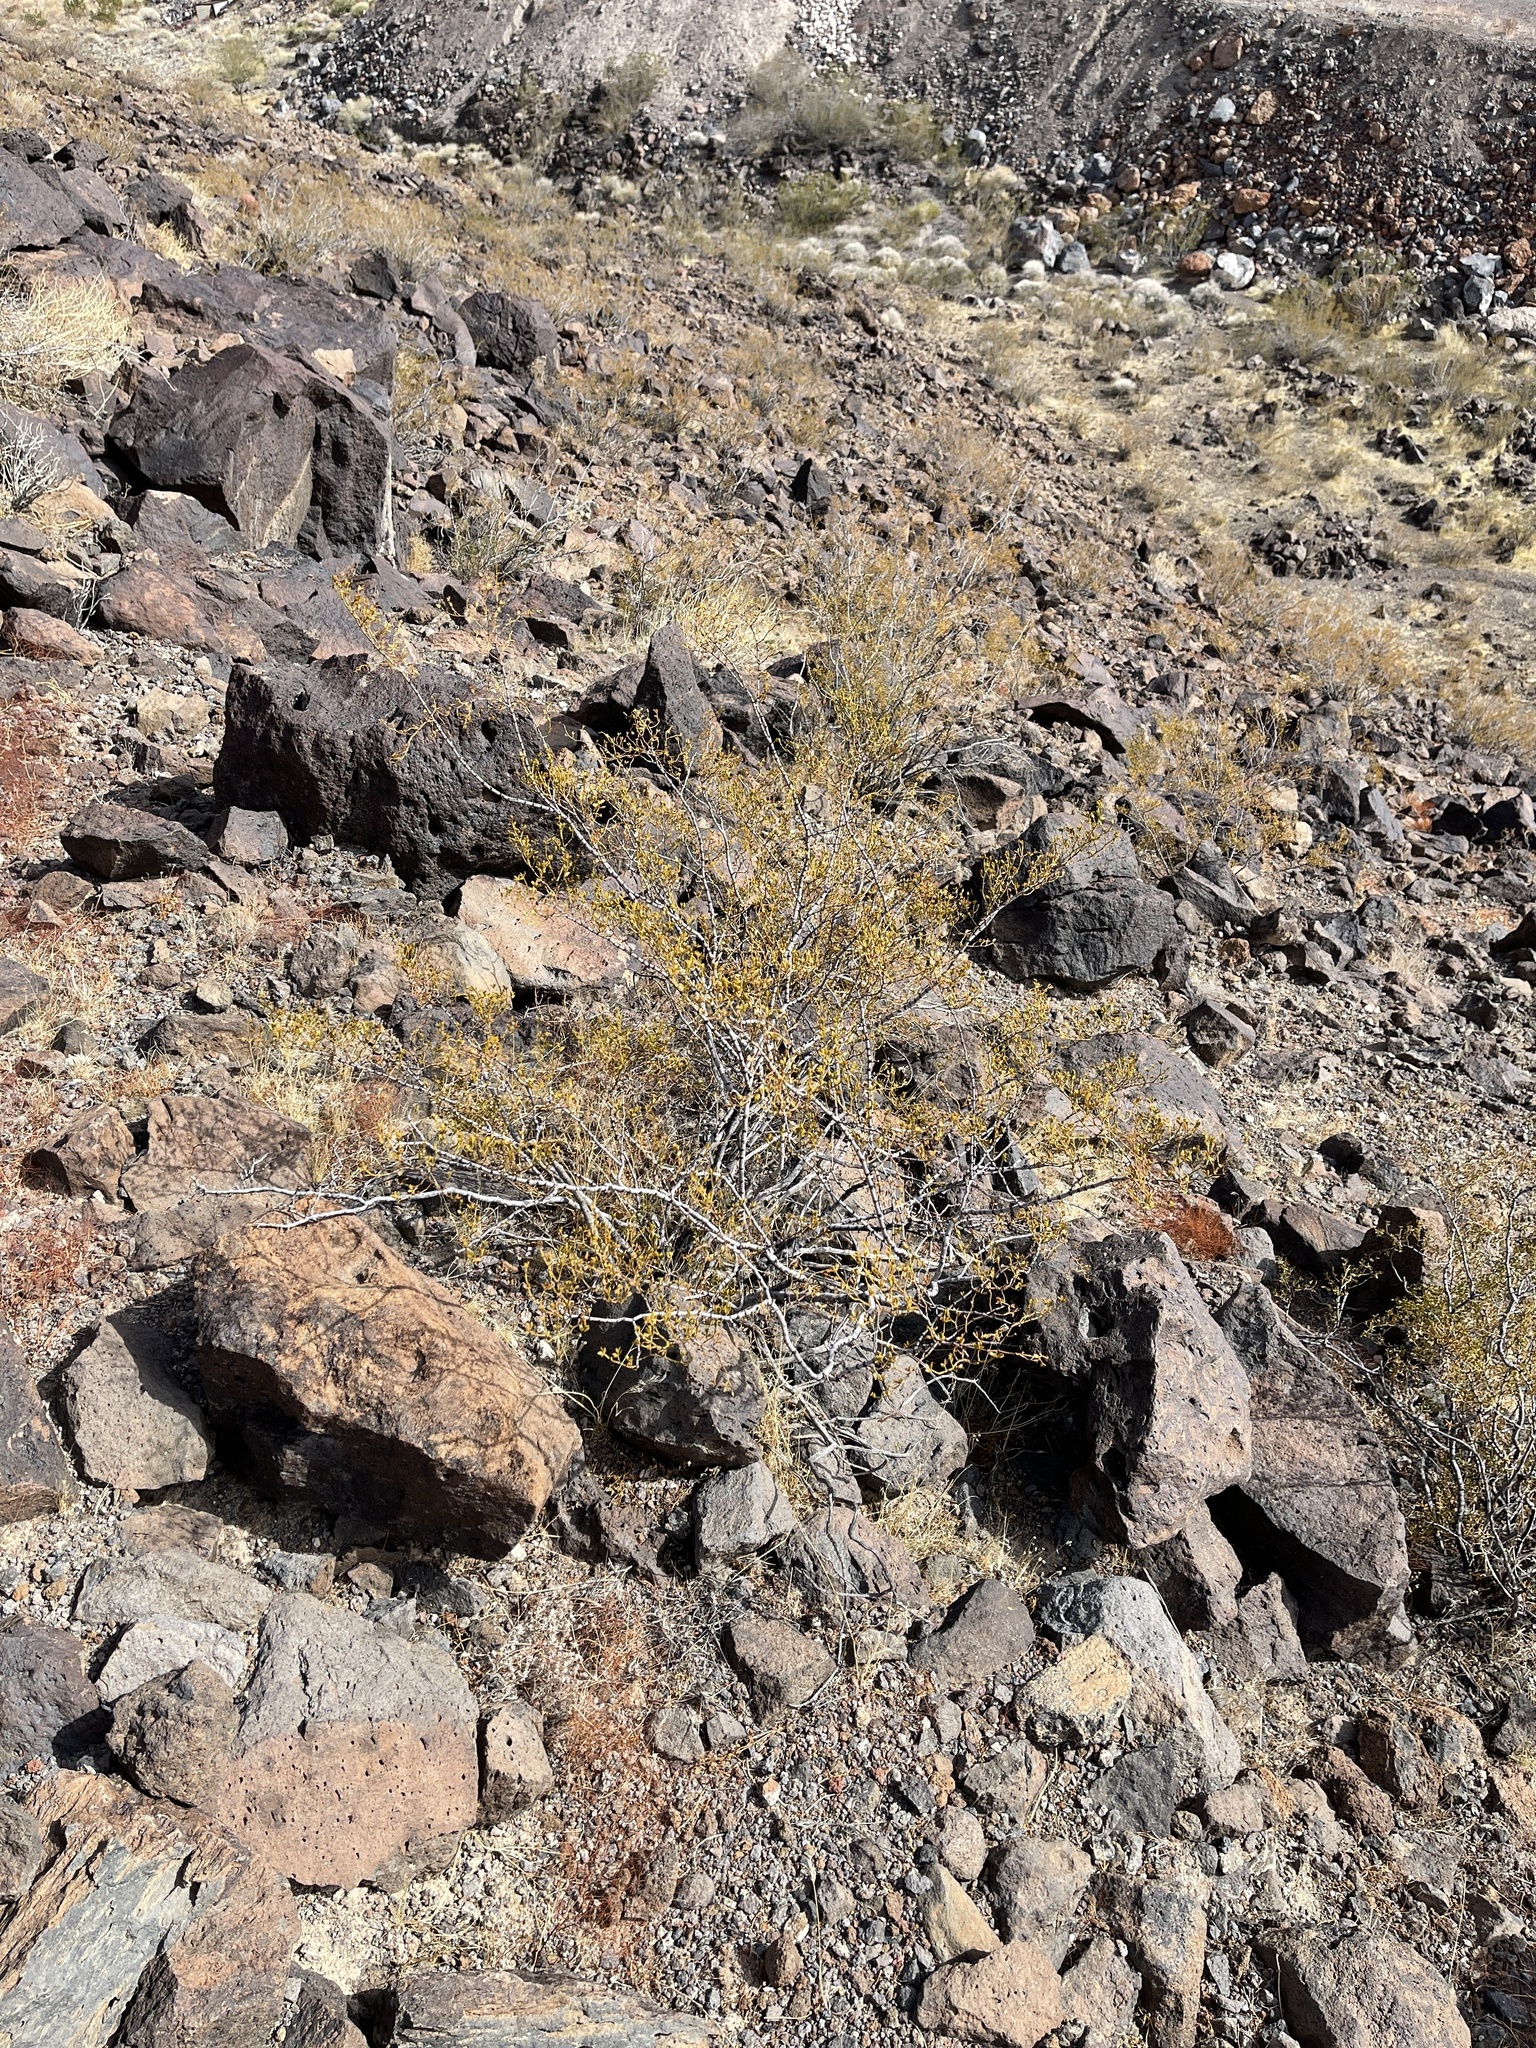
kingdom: Plantae
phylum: Tracheophyta
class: Magnoliopsida
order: Zygophyllales
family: Zygophyllaceae
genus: Larrea
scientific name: Larrea tridentata
